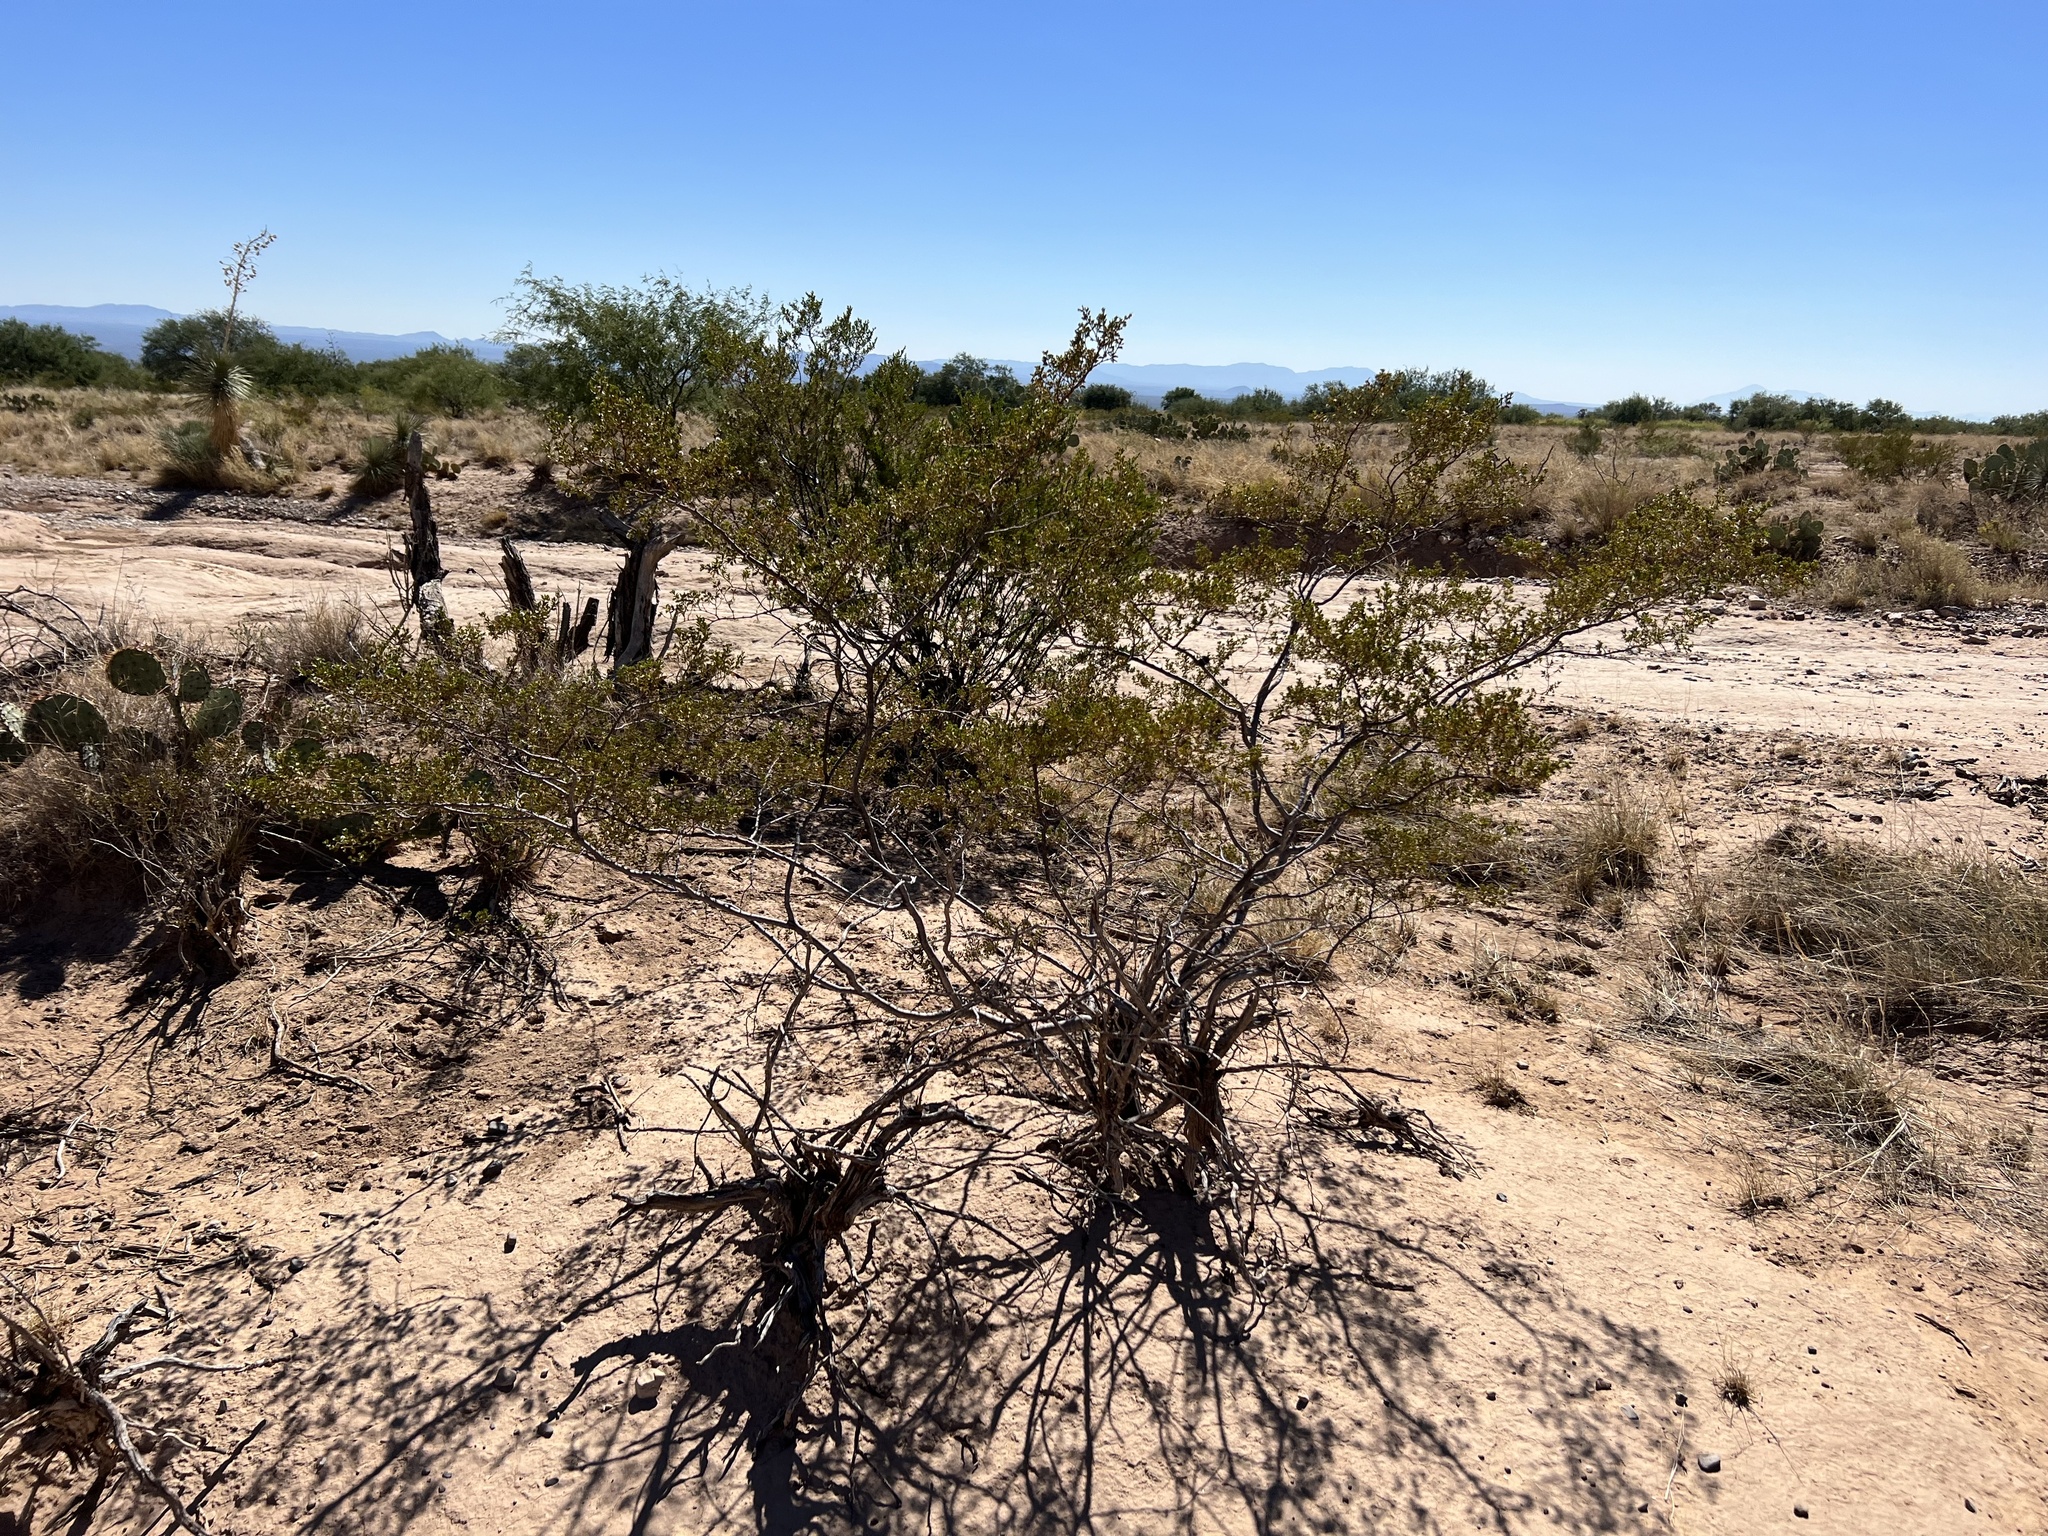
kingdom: Plantae
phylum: Tracheophyta
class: Magnoliopsida
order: Zygophyllales
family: Zygophyllaceae
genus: Larrea
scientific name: Larrea tridentata
